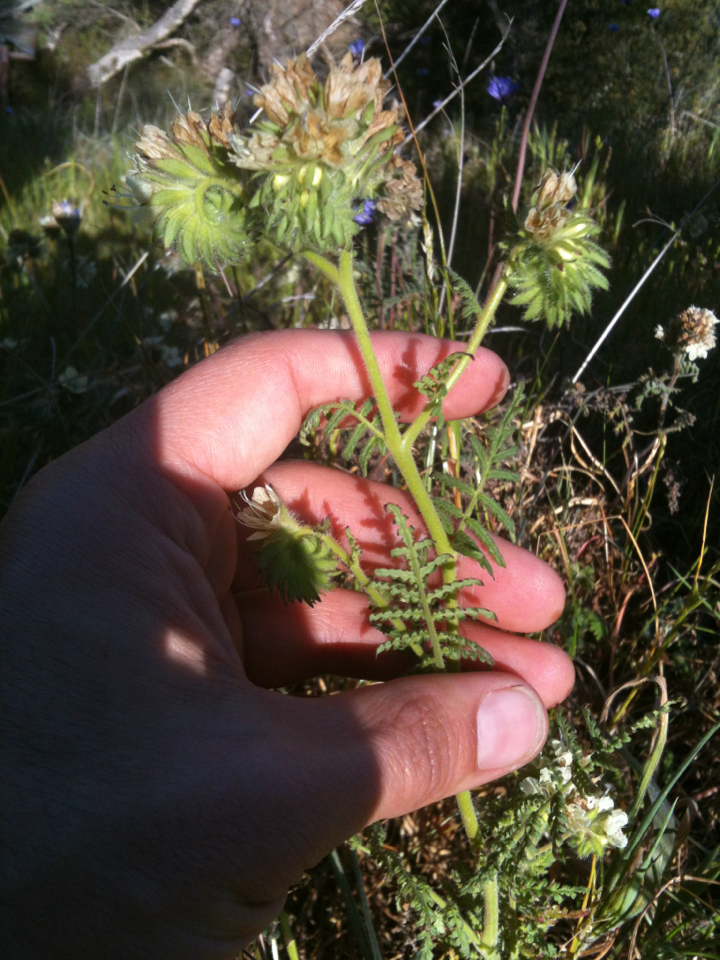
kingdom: Plantae
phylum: Tracheophyta
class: Magnoliopsida
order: Boraginales
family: Hydrophyllaceae
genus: Phacelia
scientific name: Phacelia distans
